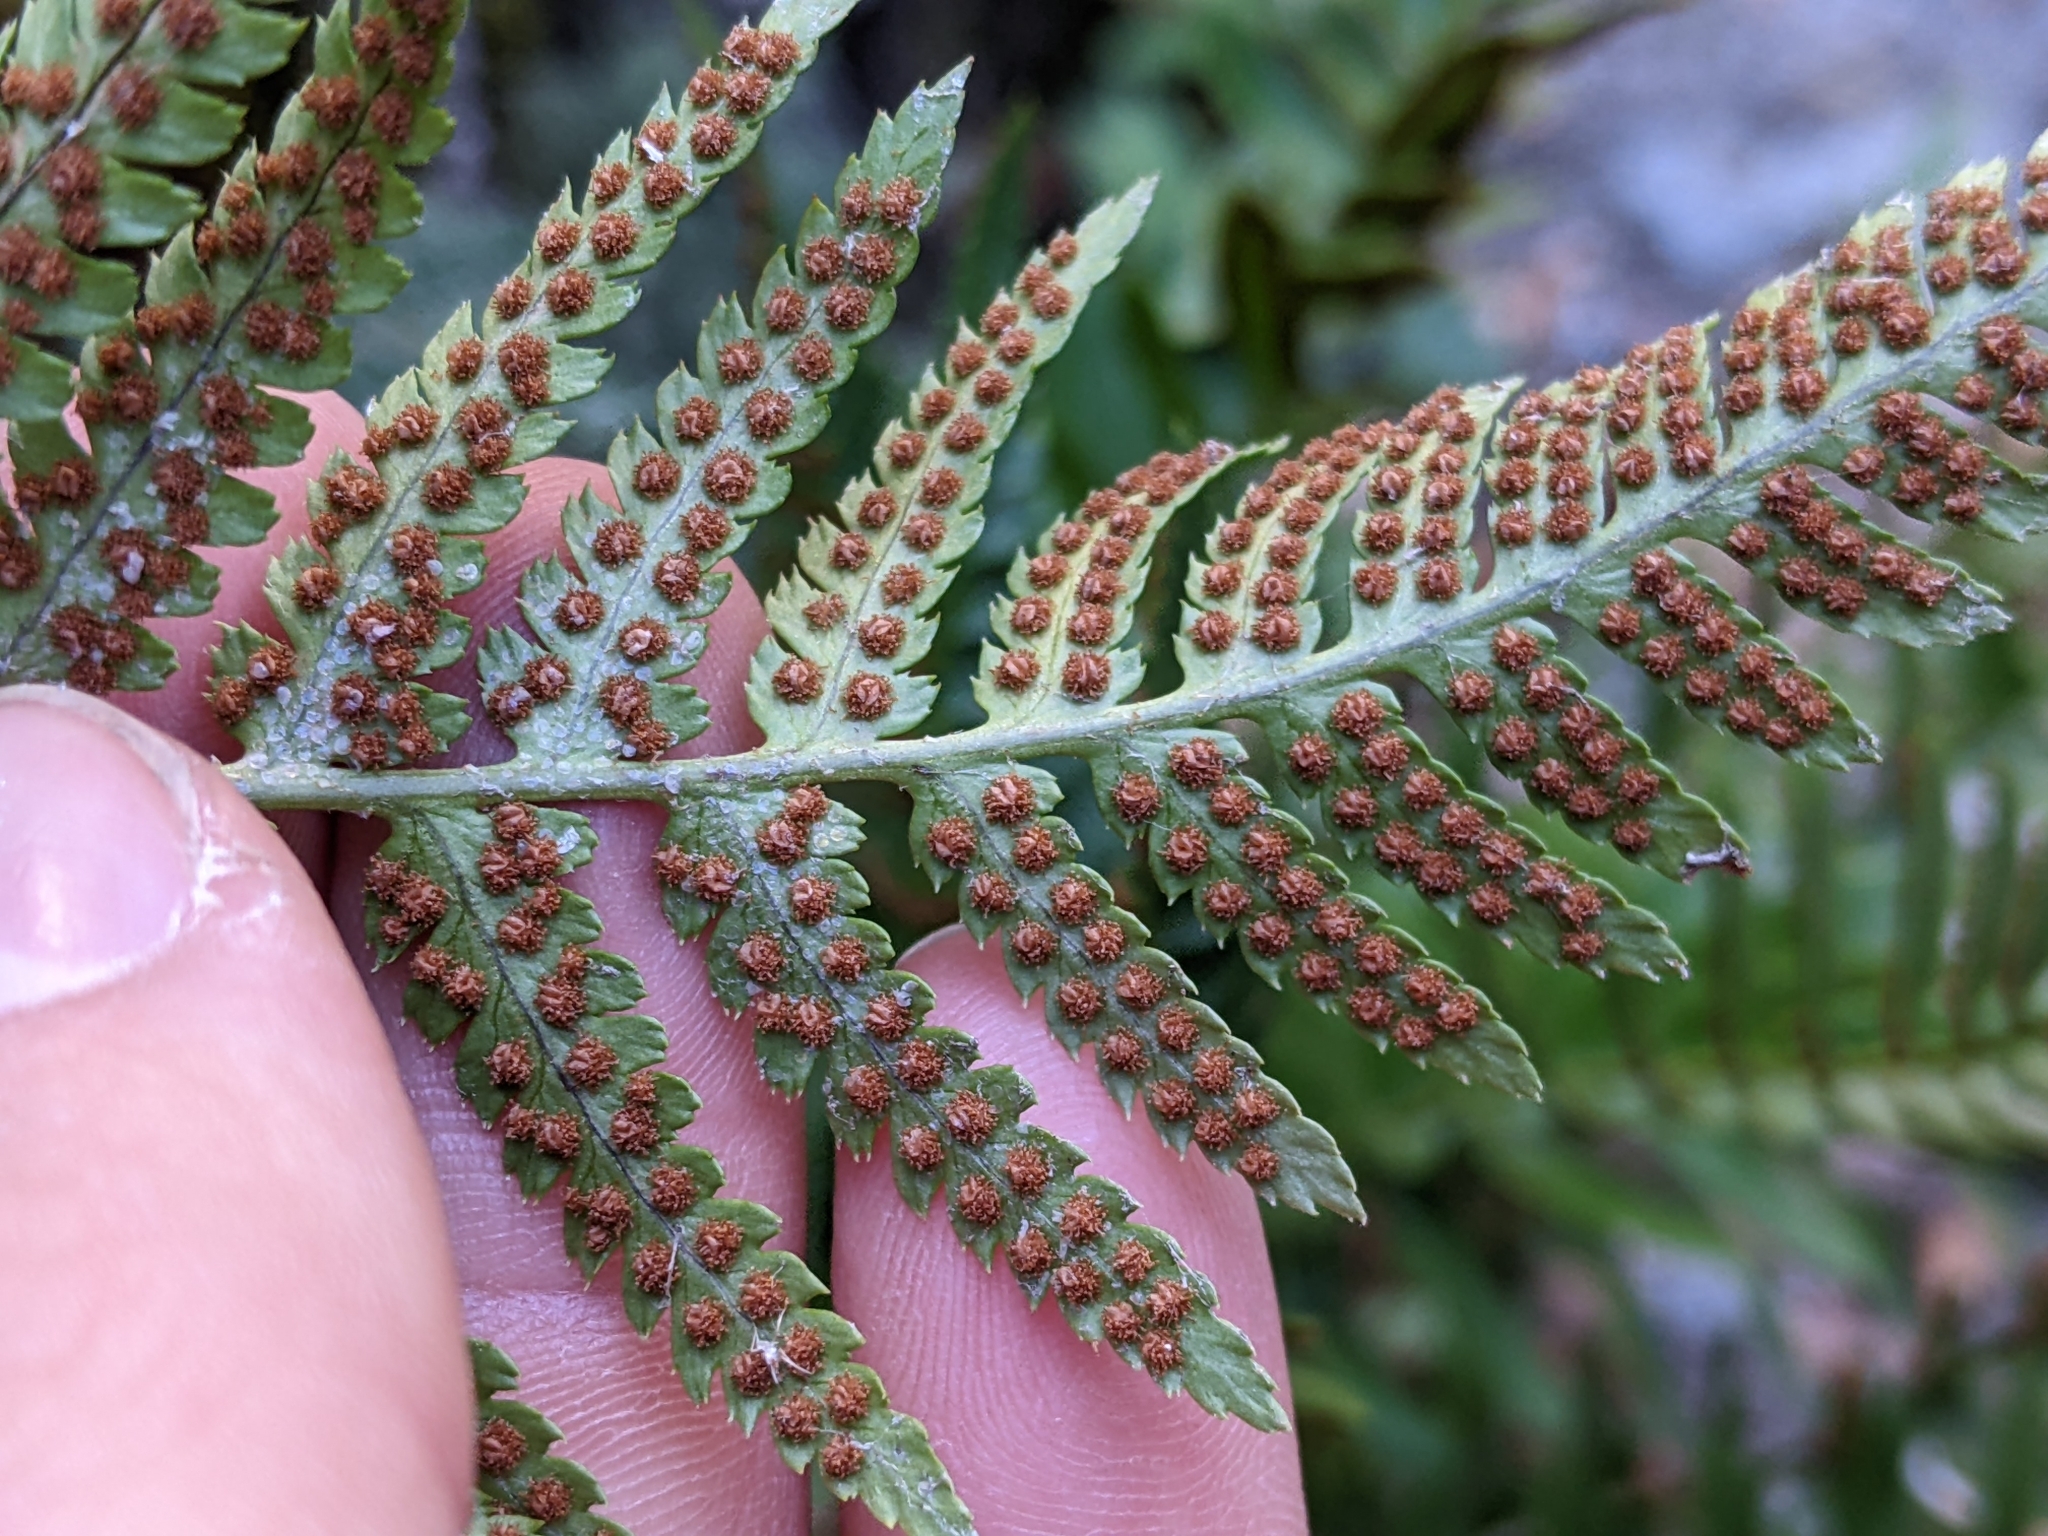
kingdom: Plantae
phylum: Tracheophyta
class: Polypodiopsida
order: Polypodiales
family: Dryopteridaceae
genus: Dryopteris
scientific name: Dryopteris arguta
